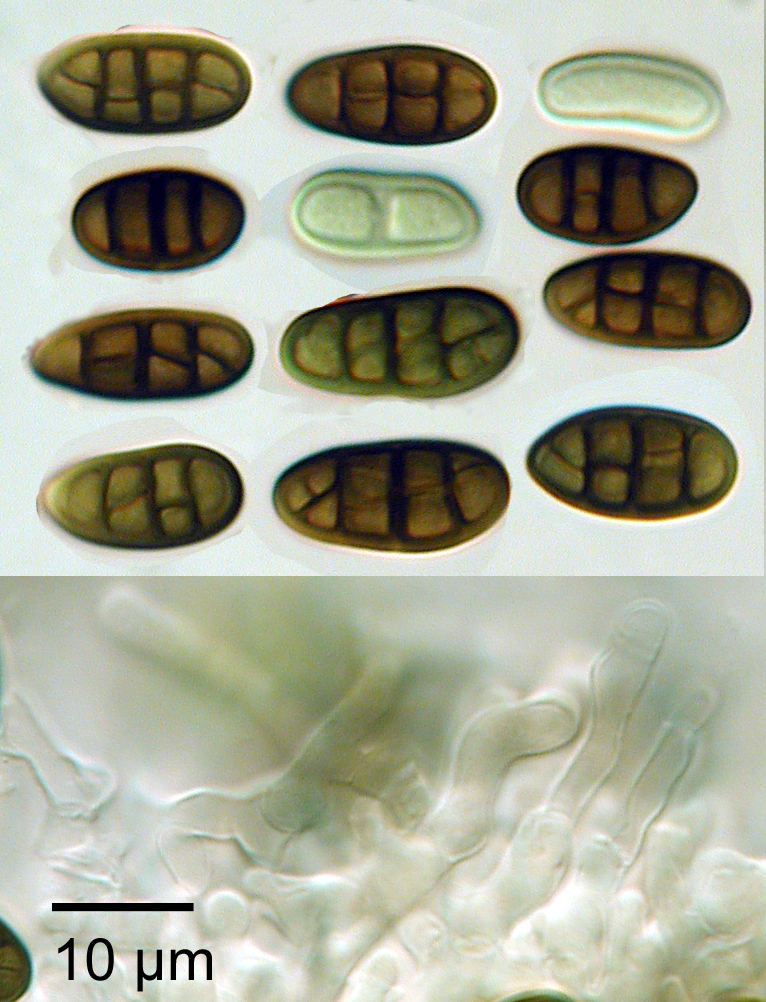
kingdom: Fungi
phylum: Ascomycota
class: Dothideomycetes
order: Pleosporales
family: Camarosporiaceae
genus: Camarosporium
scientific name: Camarosporium sophorae
